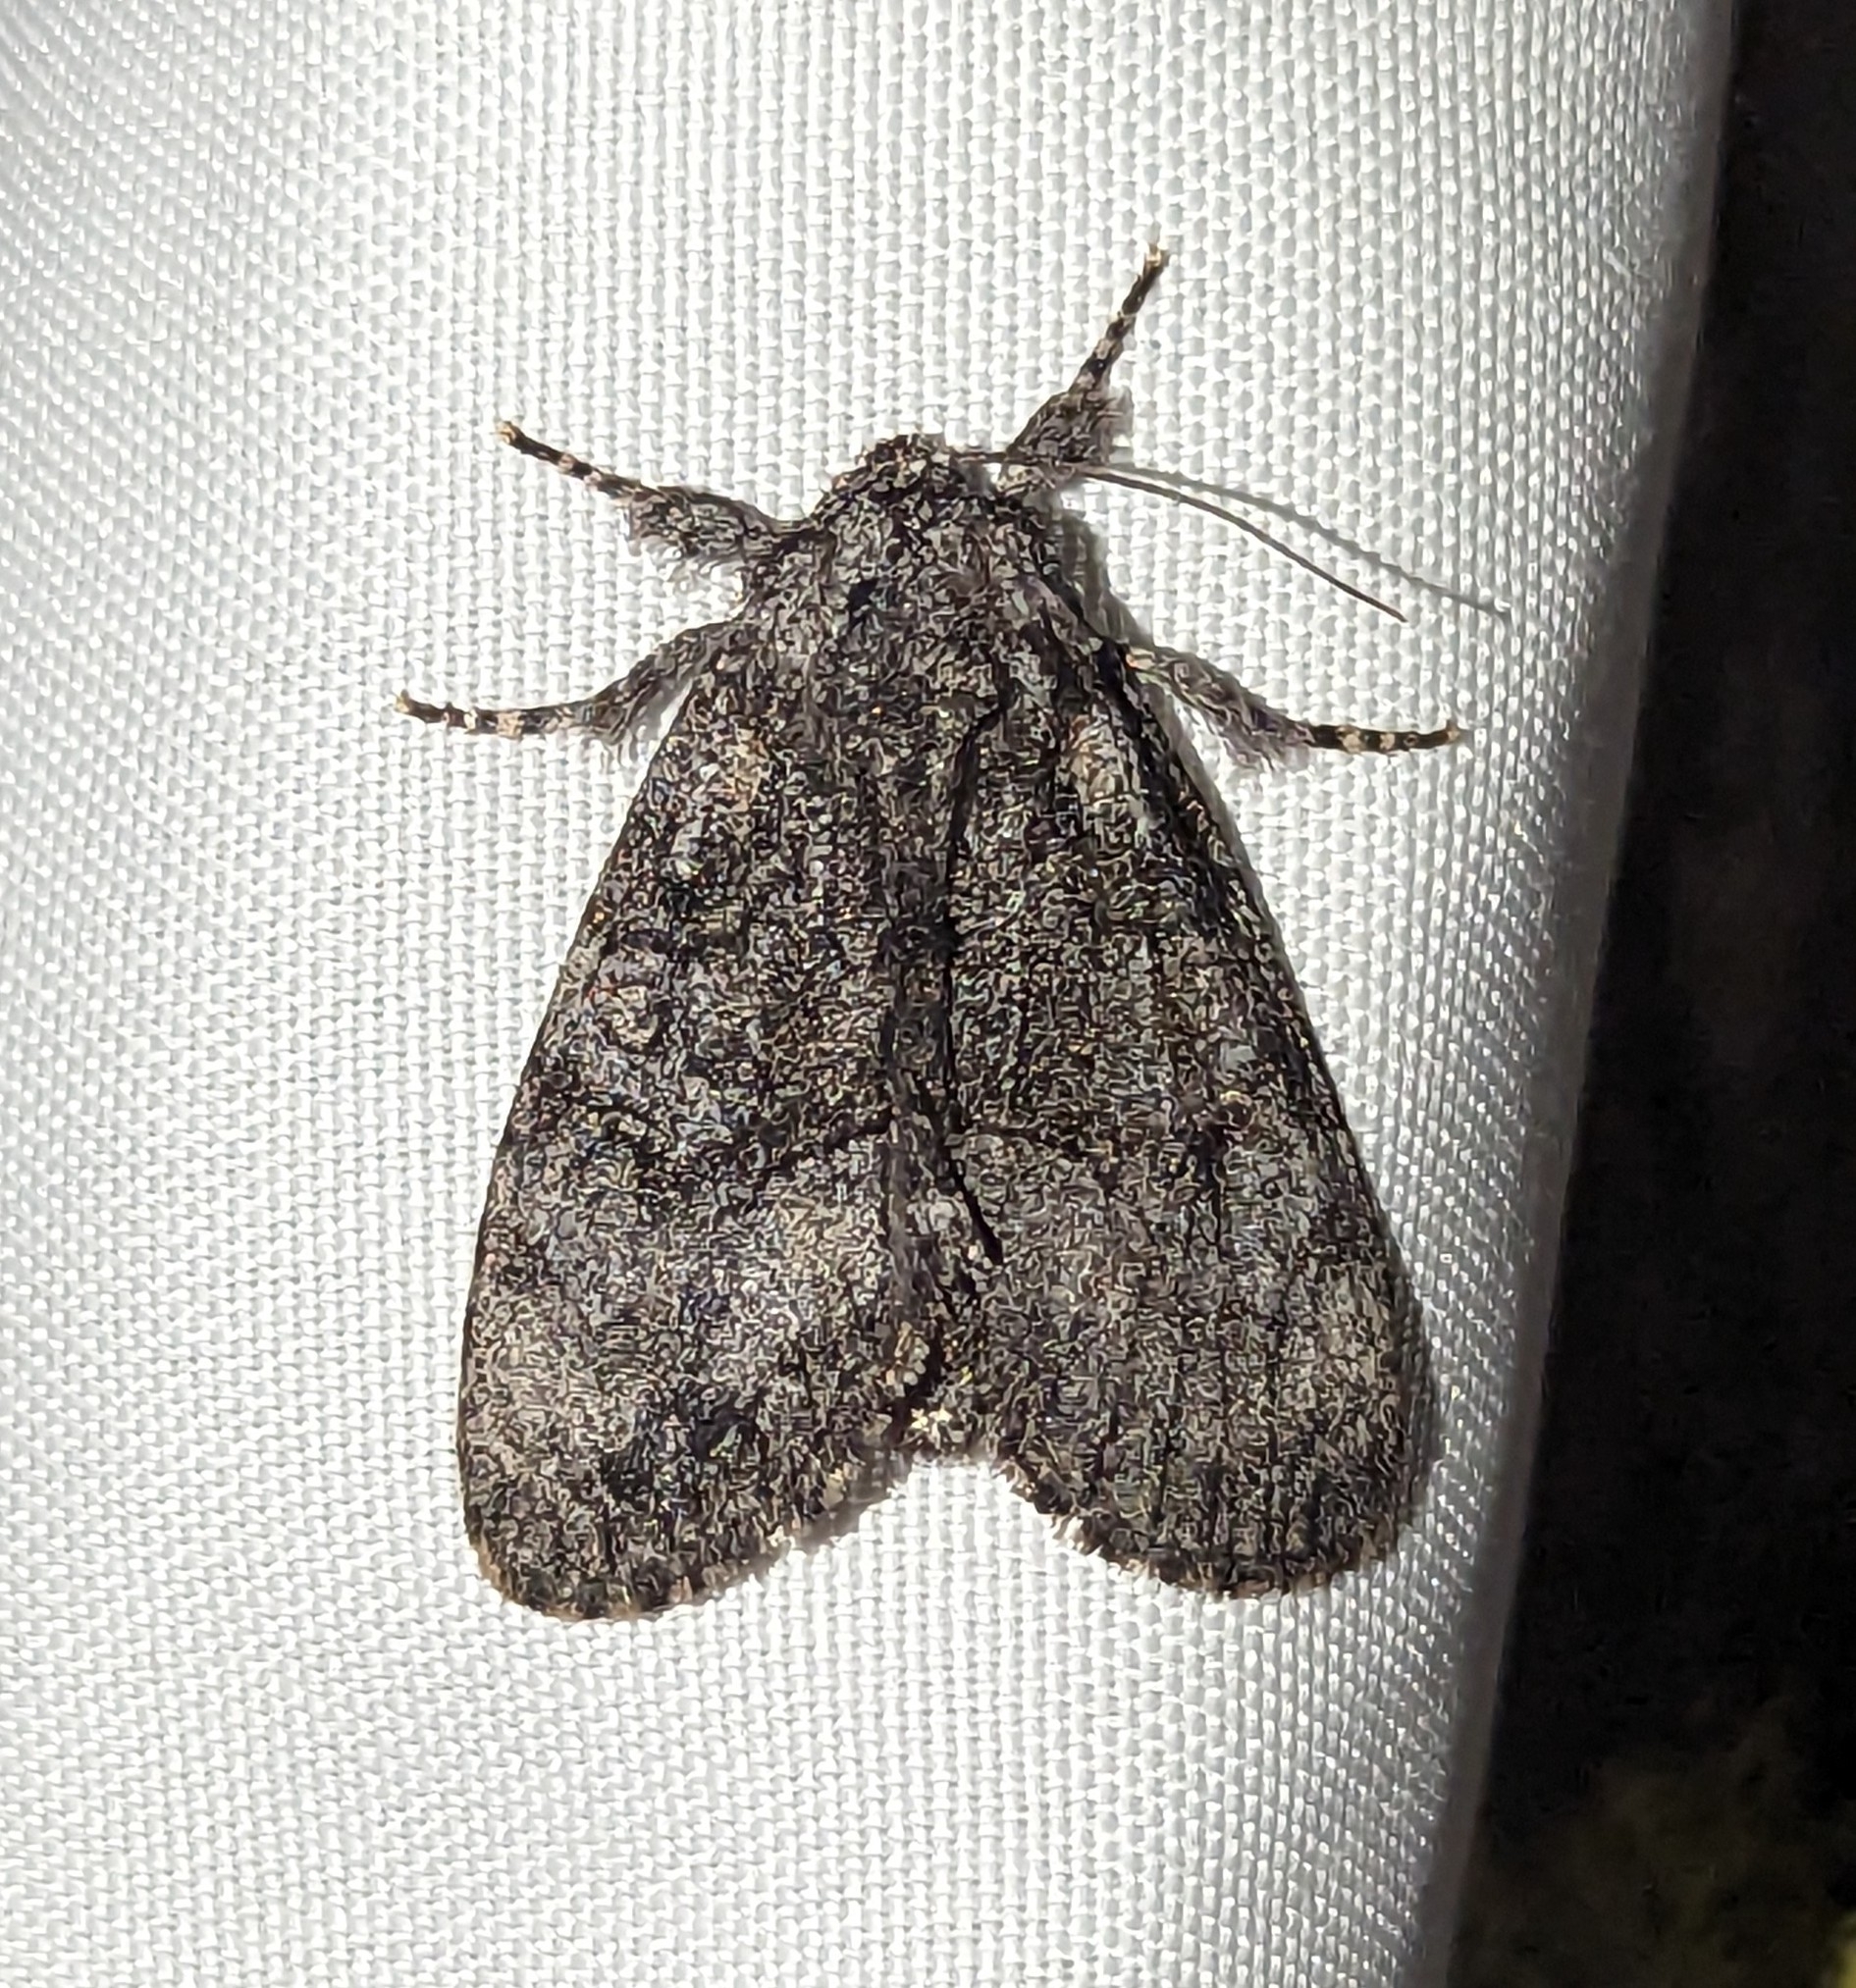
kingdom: Animalia
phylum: Arthropoda
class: Insecta
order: Lepidoptera
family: Noctuidae
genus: Raphia
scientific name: Raphia frater
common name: Brother
